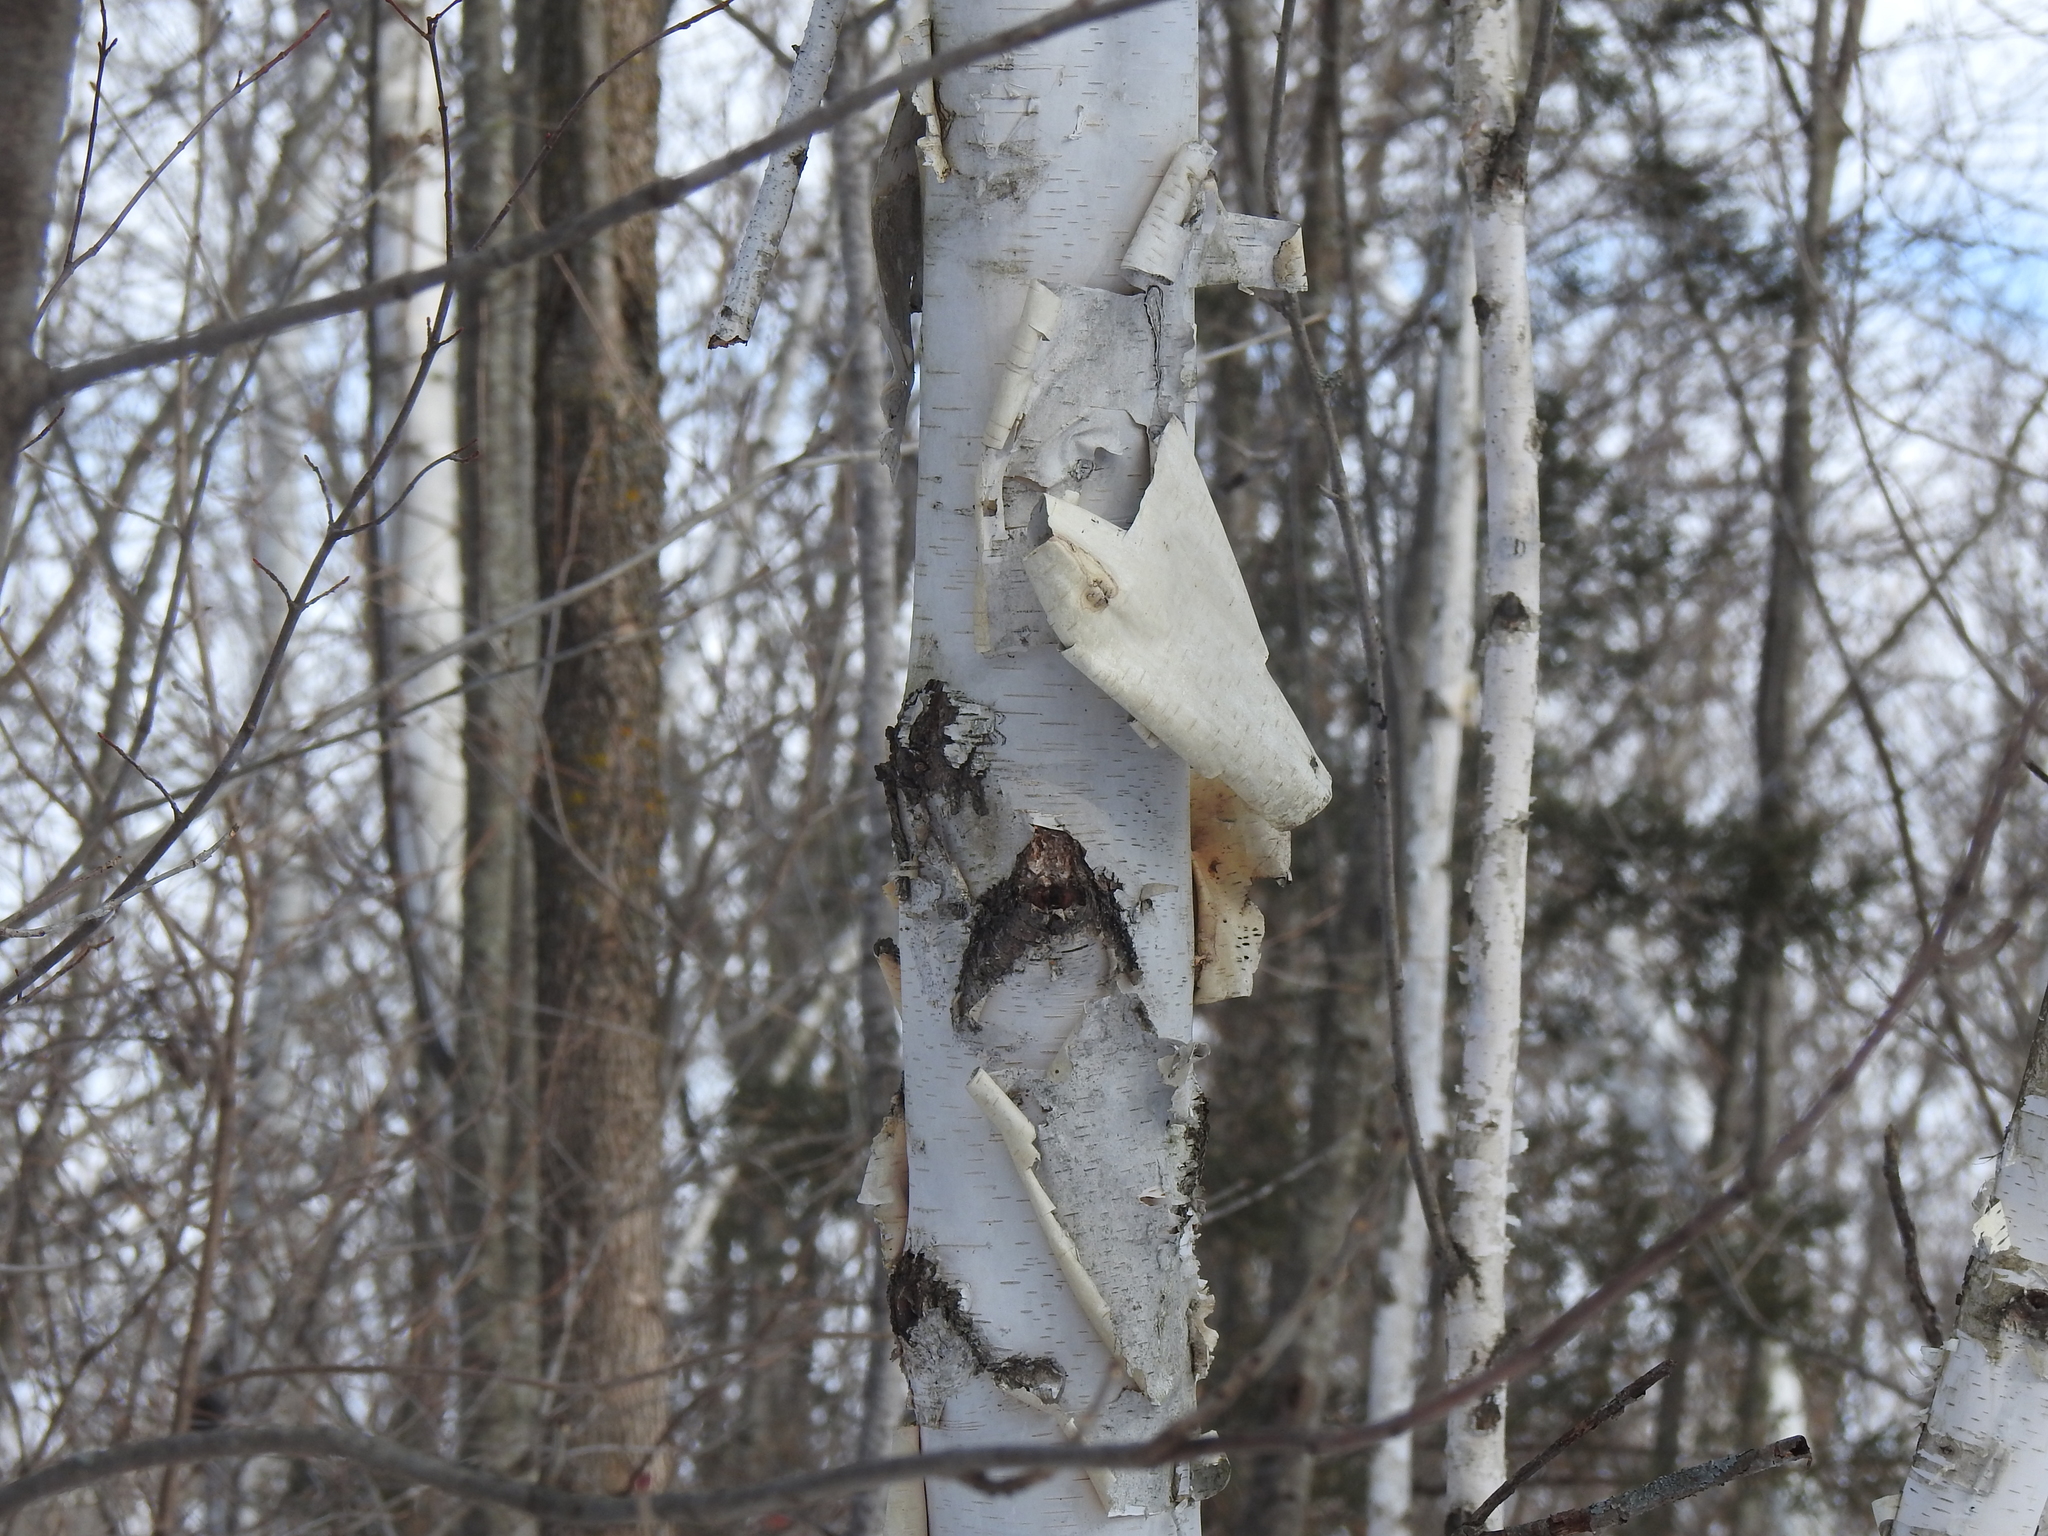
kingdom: Plantae
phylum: Tracheophyta
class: Magnoliopsida
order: Fagales
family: Betulaceae
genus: Betula
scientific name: Betula papyrifera
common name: Paper birch
